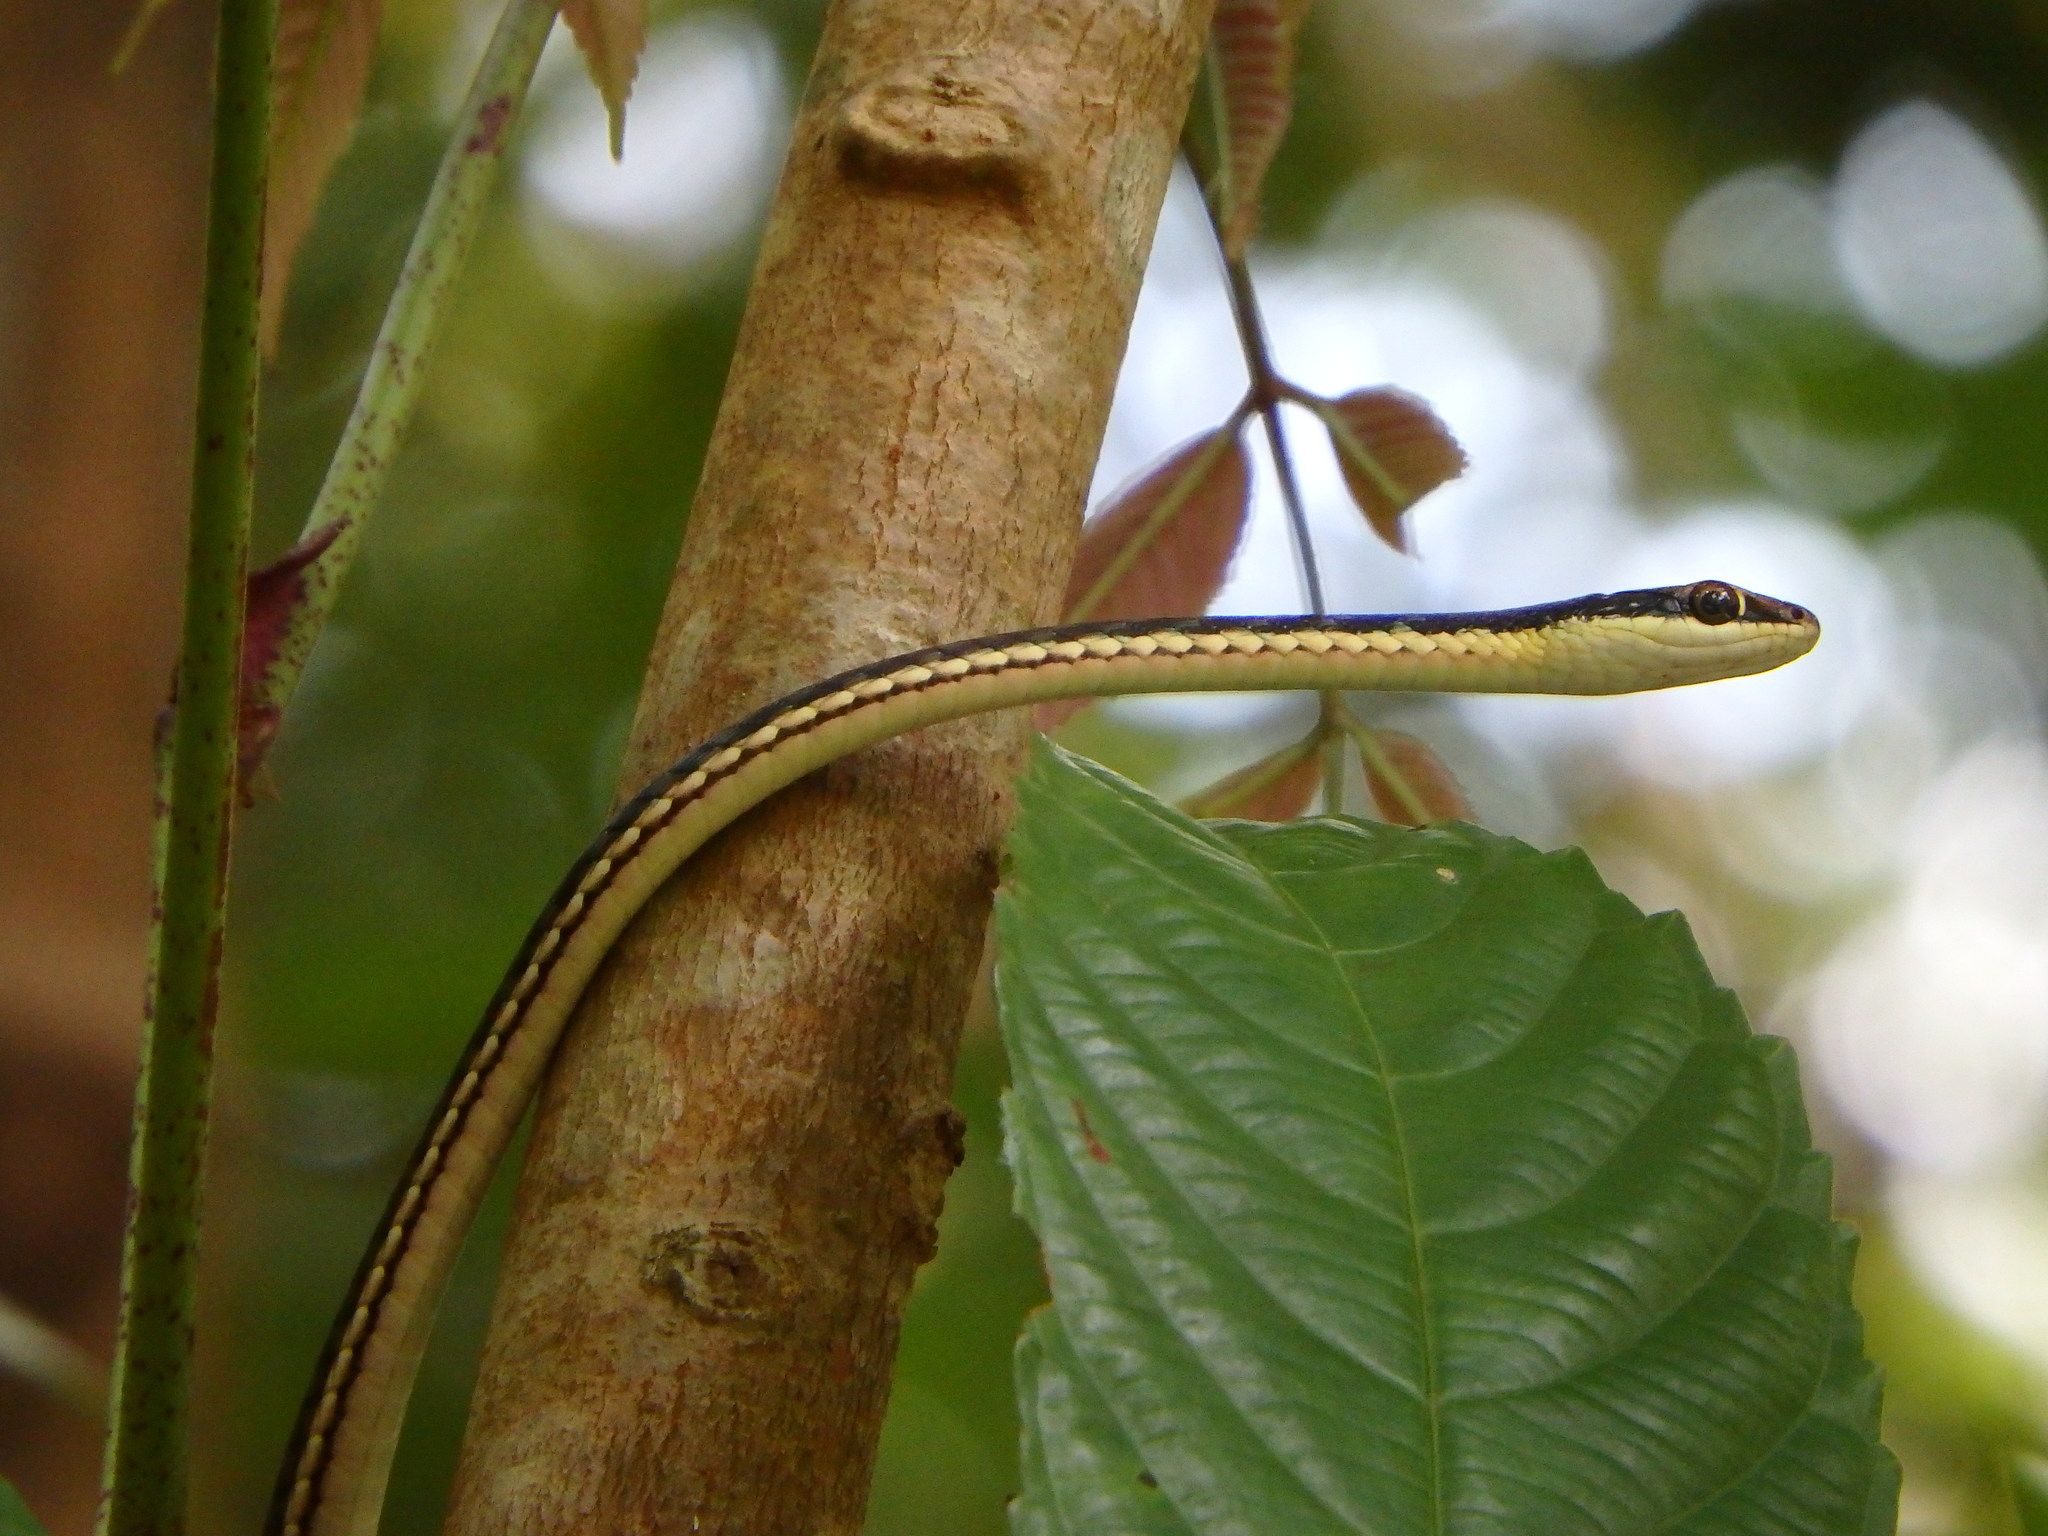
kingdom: Animalia
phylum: Chordata
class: Squamata
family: Colubridae
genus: Dendrelaphis
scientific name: Dendrelaphis pictus
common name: Indonesian bronze-back
